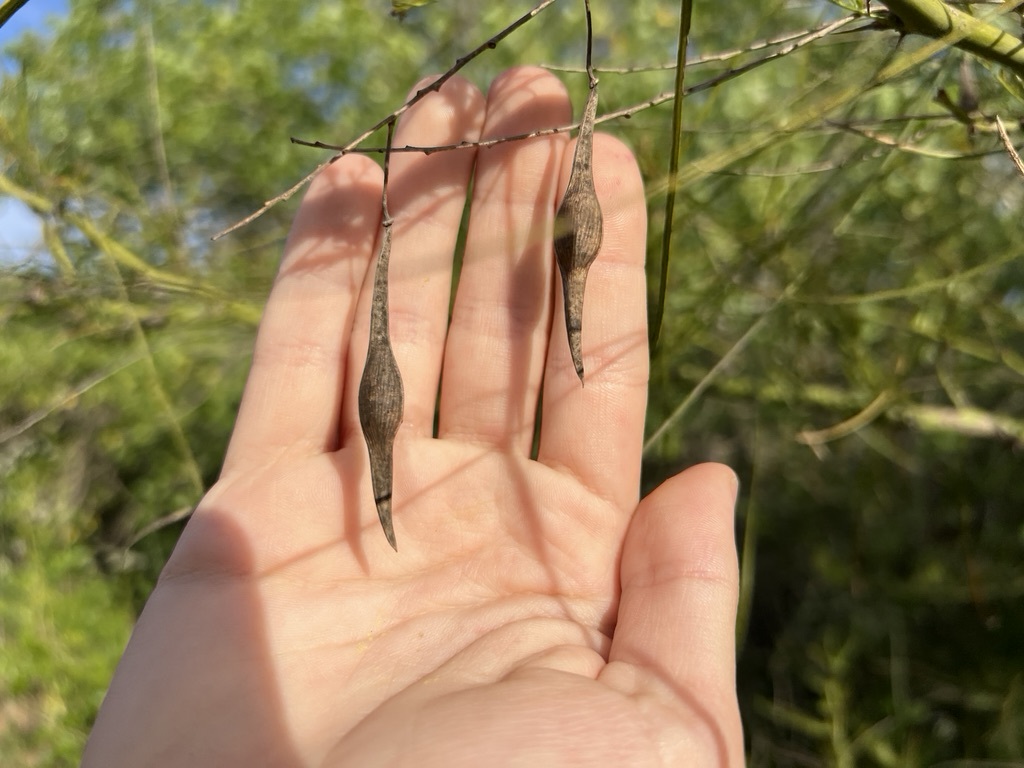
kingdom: Plantae
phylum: Tracheophyta
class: Magnoliopsida
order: Fabales
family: Fabaceae
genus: Parkinsonia
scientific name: Parkinsonia aculeata
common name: Jerusalem thorn
